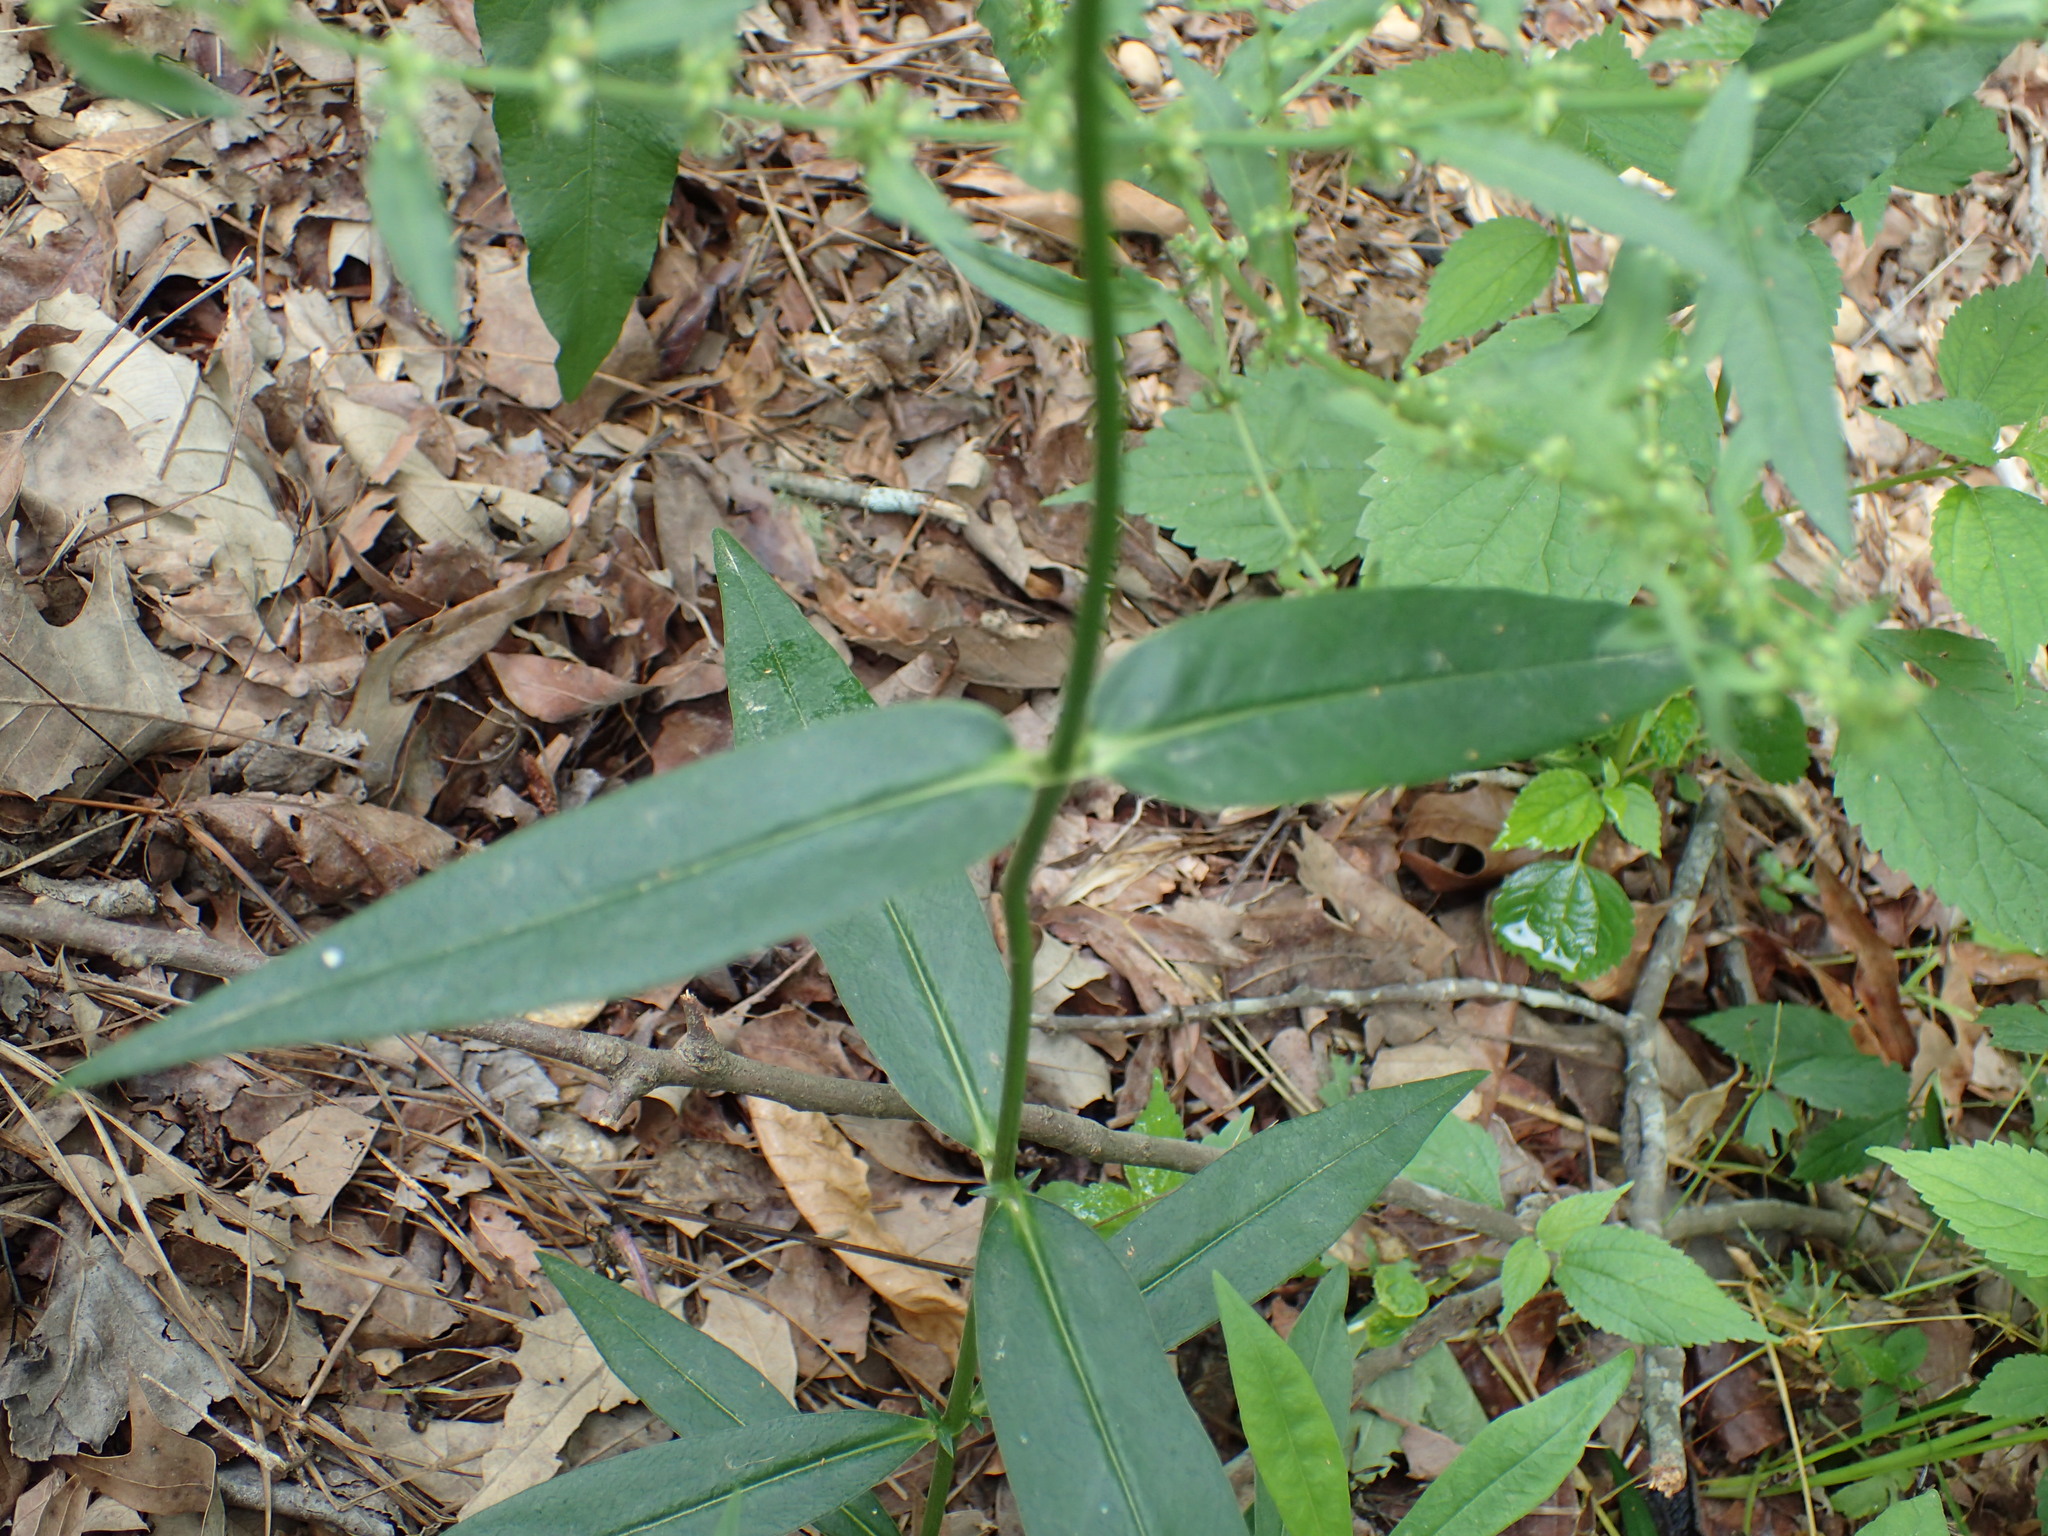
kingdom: Plantae
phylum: Tracheophyta
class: Magnoliopsida
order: Ericales
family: Polemoniaceae
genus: Phlox
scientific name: Phlox carolina
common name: Thick-leaf phlox
